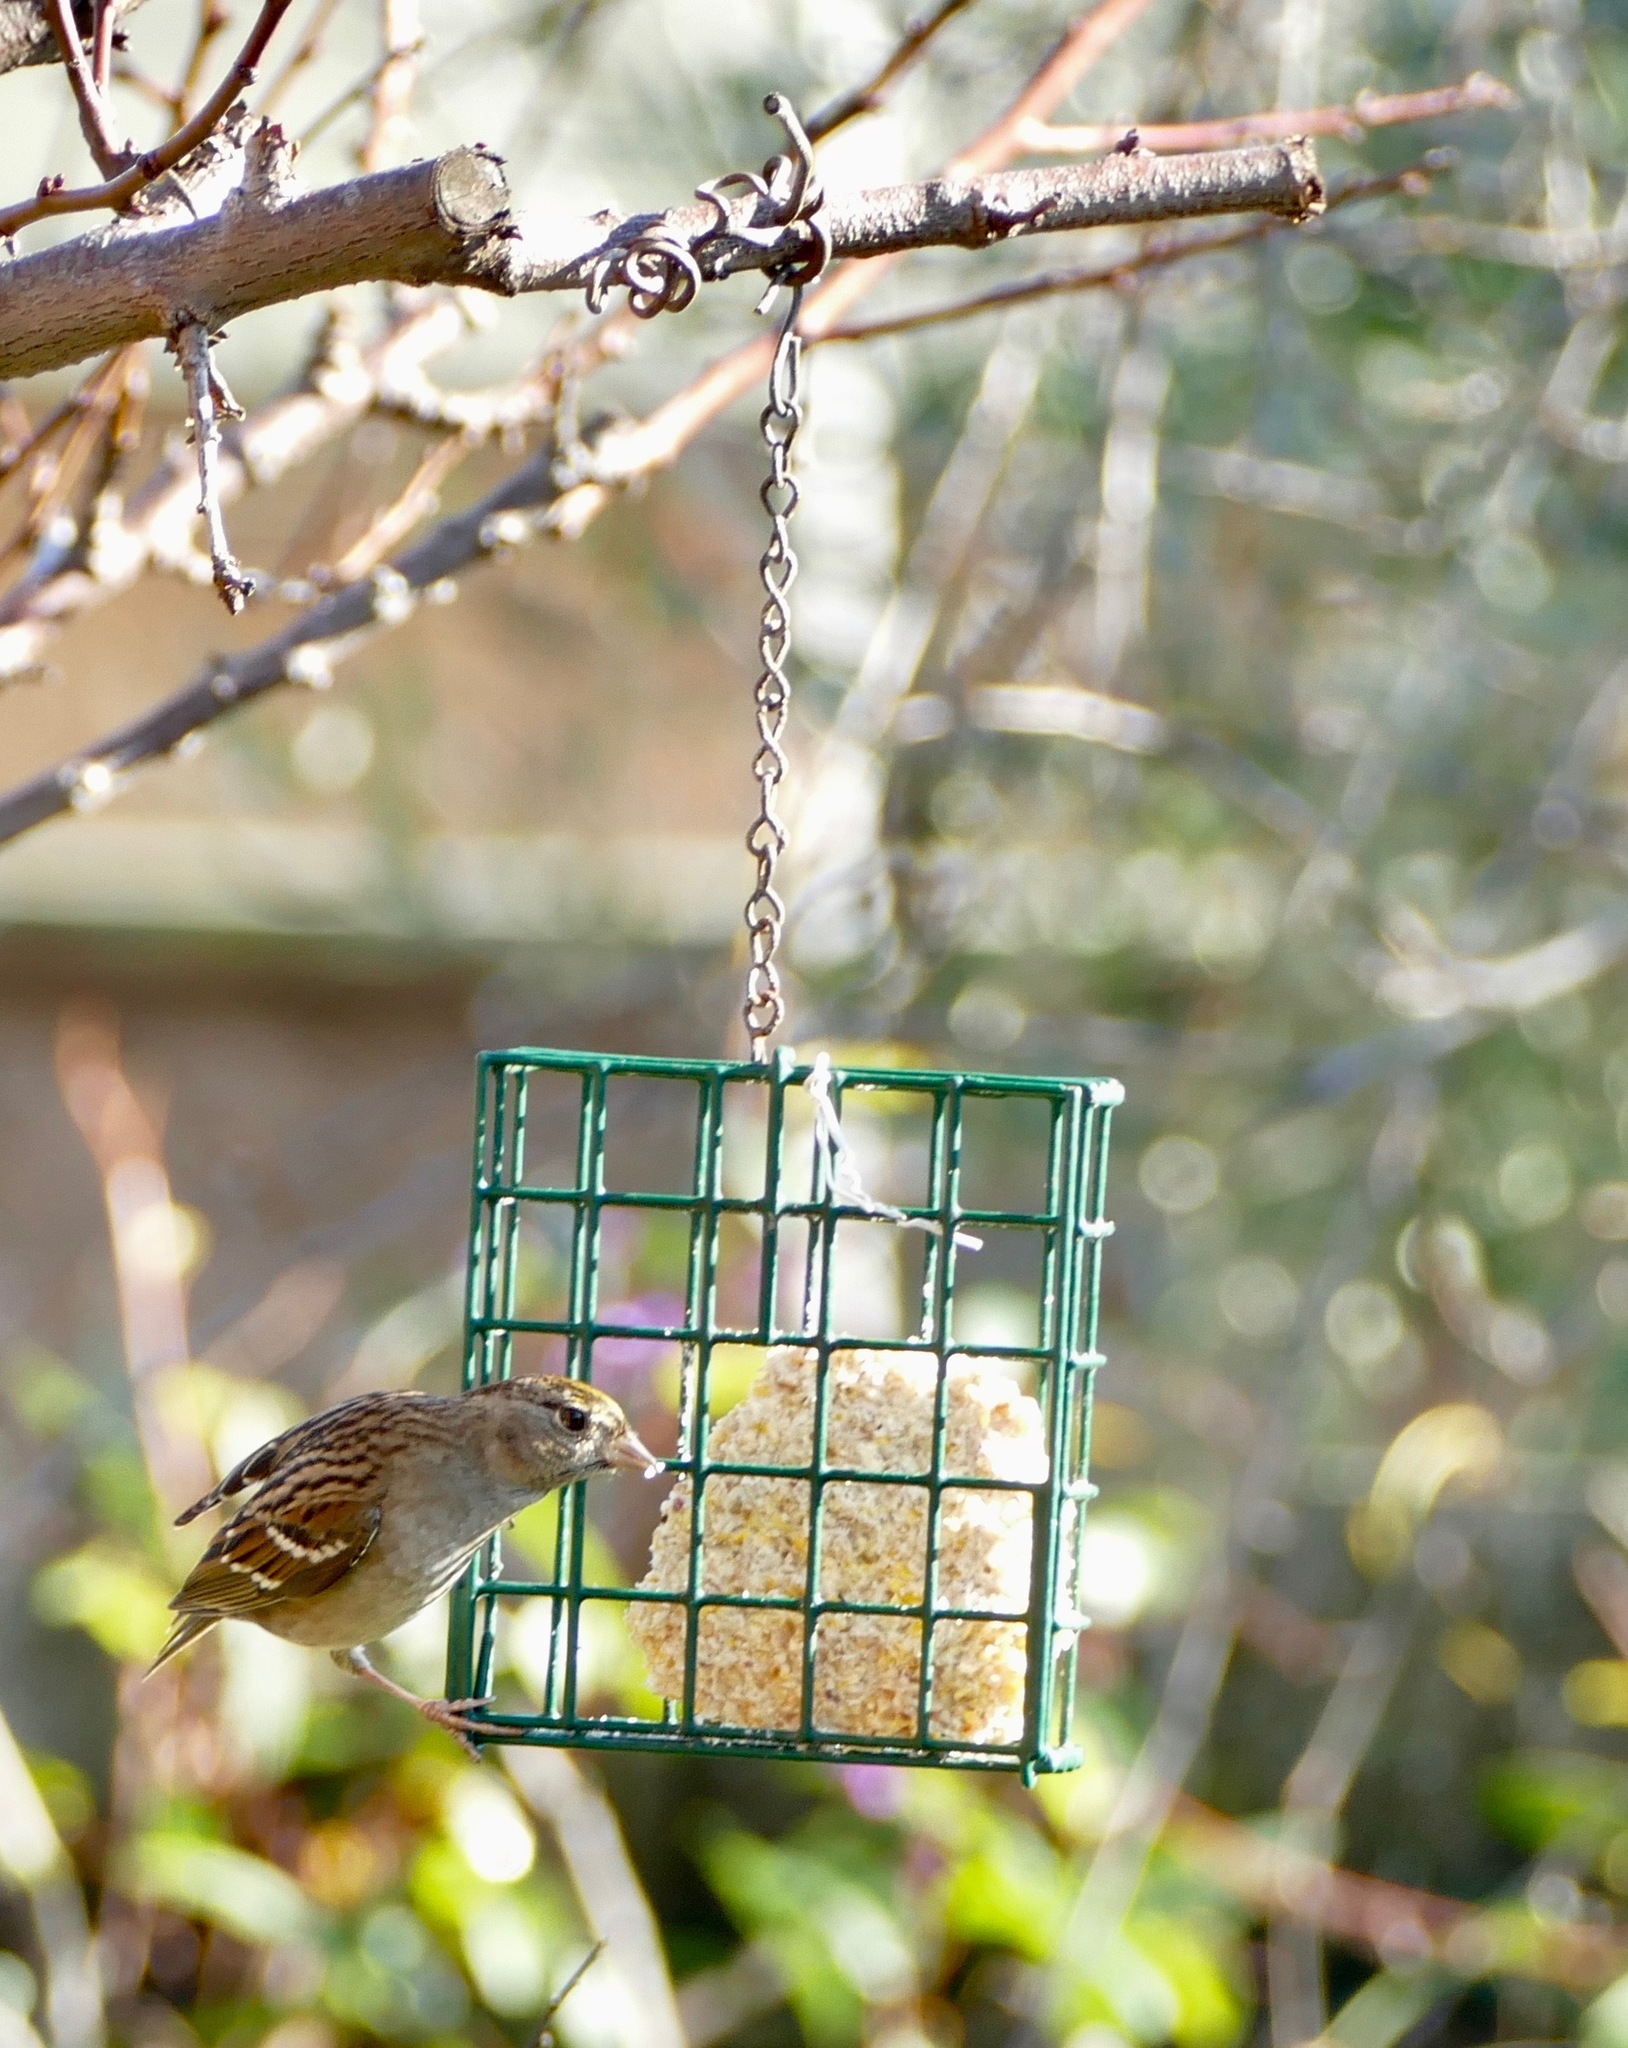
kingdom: Animalia
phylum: Chordata
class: Aves
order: Passeriformes
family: Passerellidae
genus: Zonotrichia
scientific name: Zonotrichia atricapilla
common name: Golden-crowned sparrow
